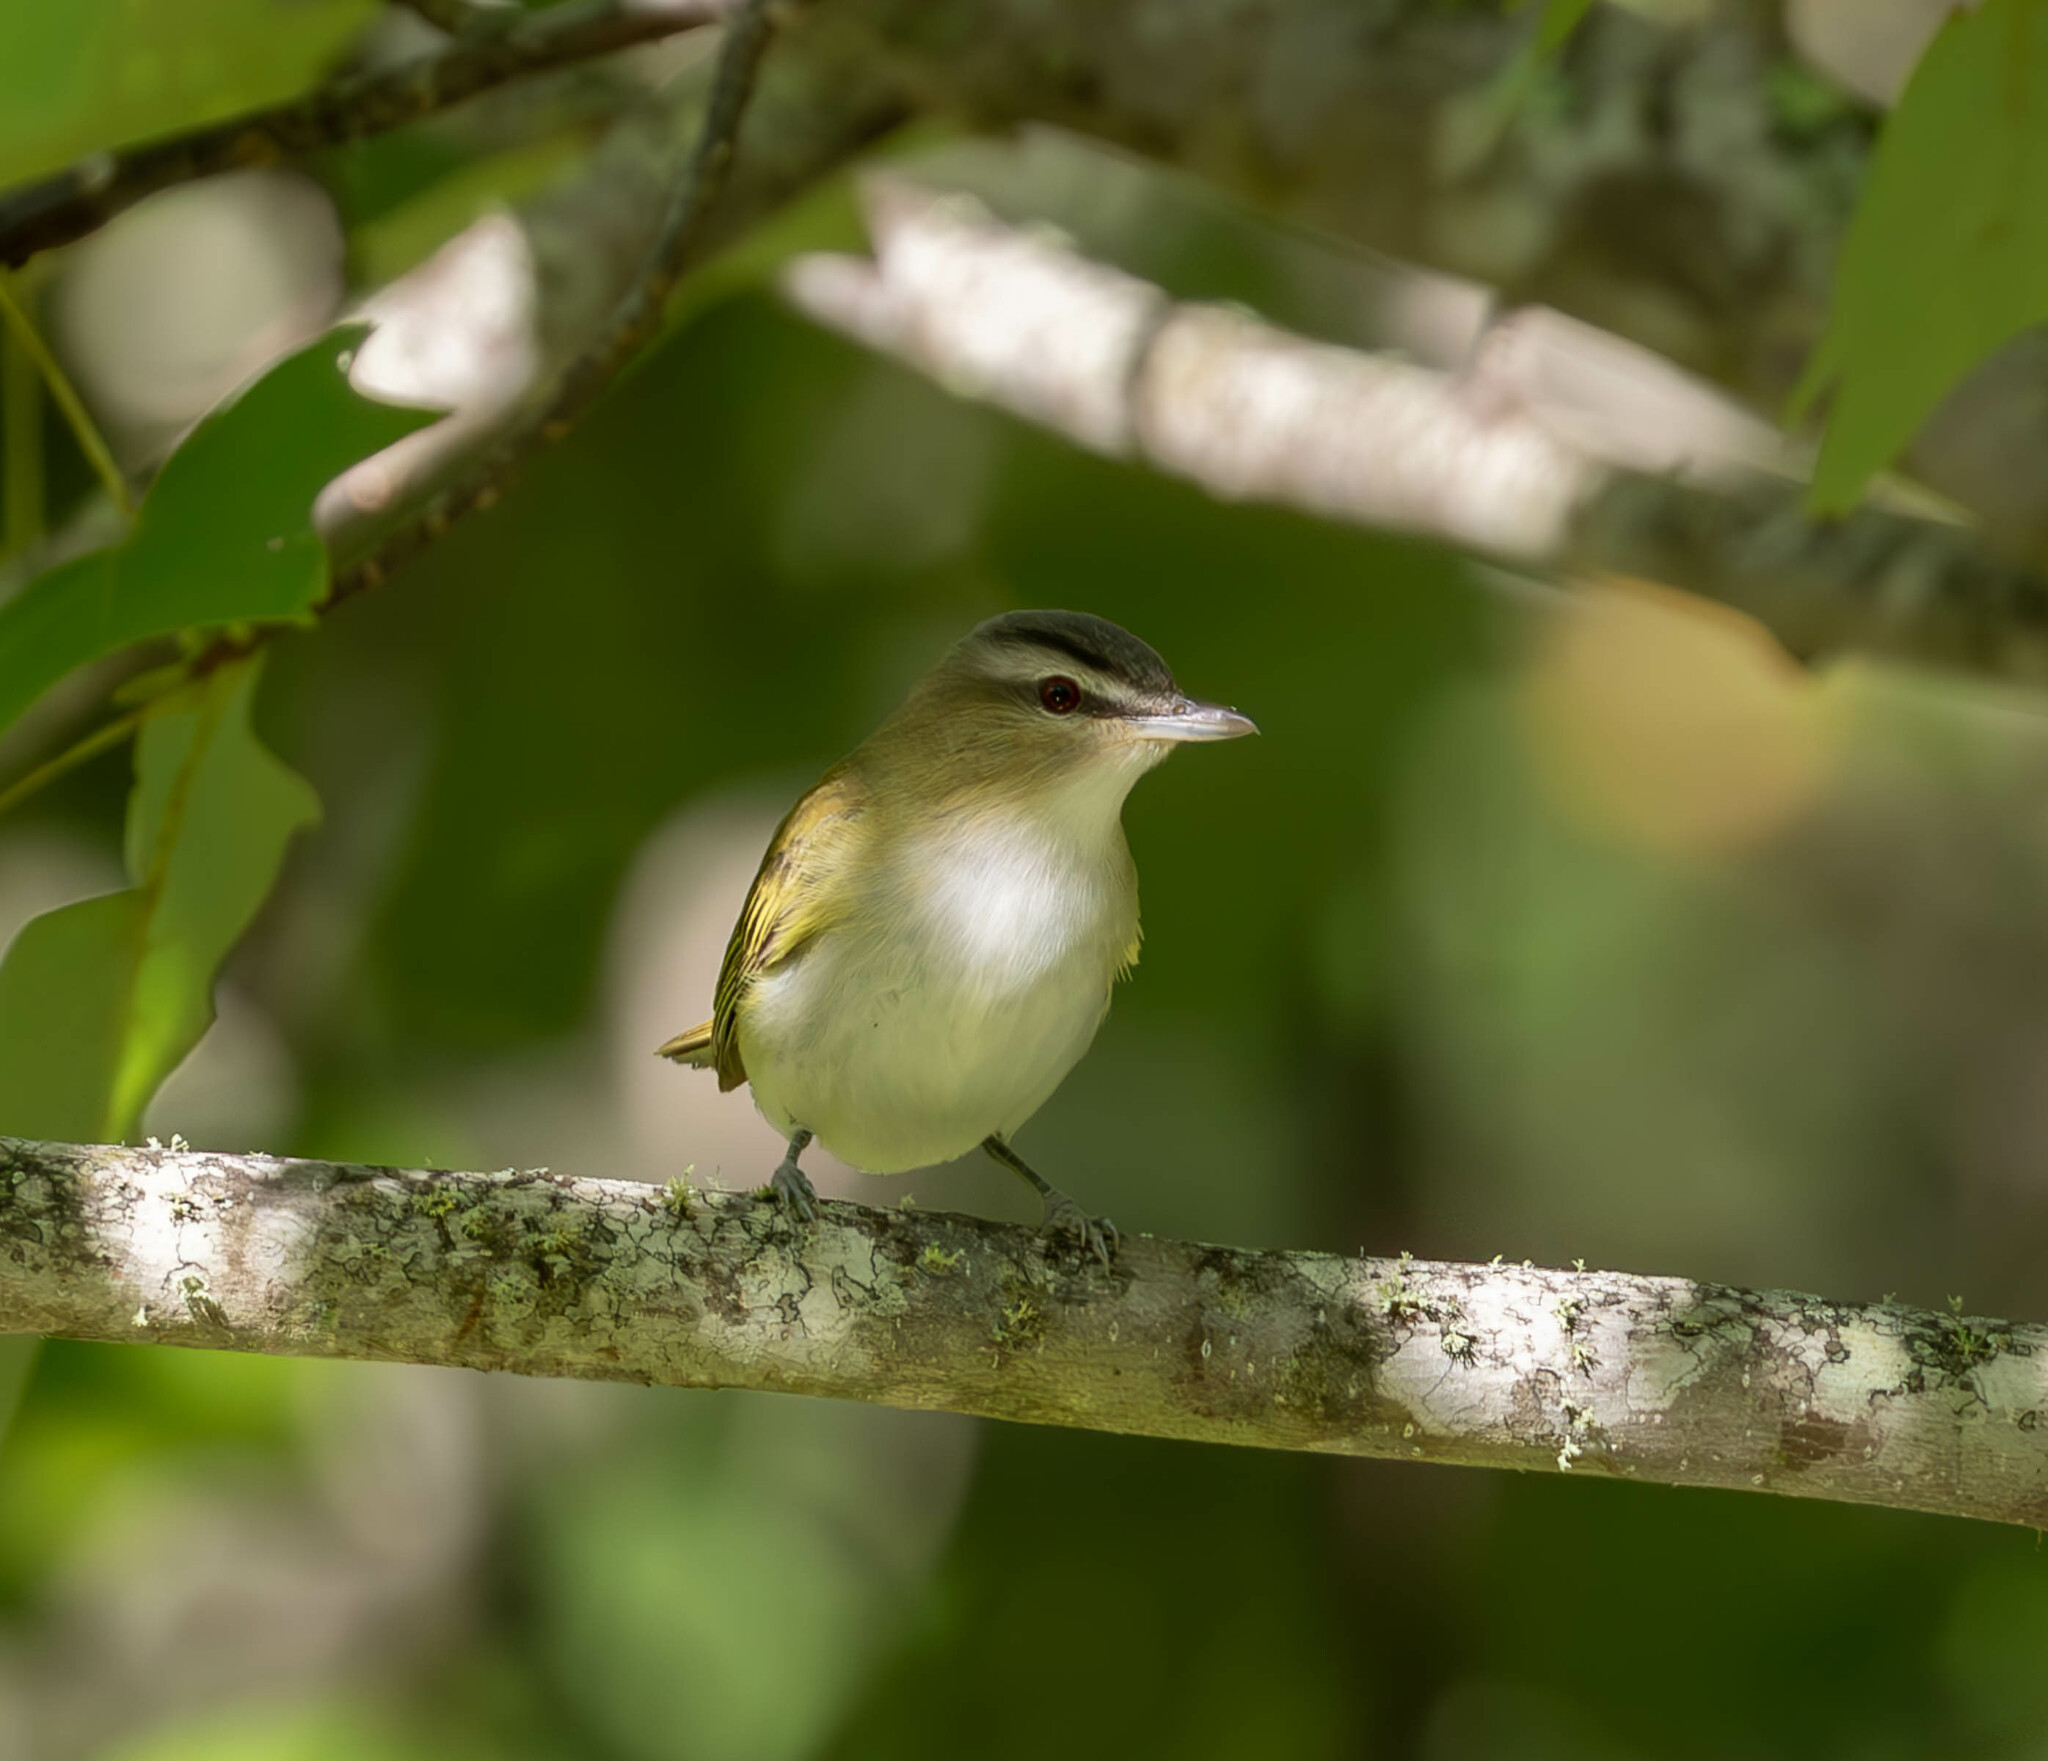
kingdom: Animalia
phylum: Chordata
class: Aves
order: Passeriformes
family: Vireonidae
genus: Vireo
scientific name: Vireo olivaceus
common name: Red-eyed vireo
